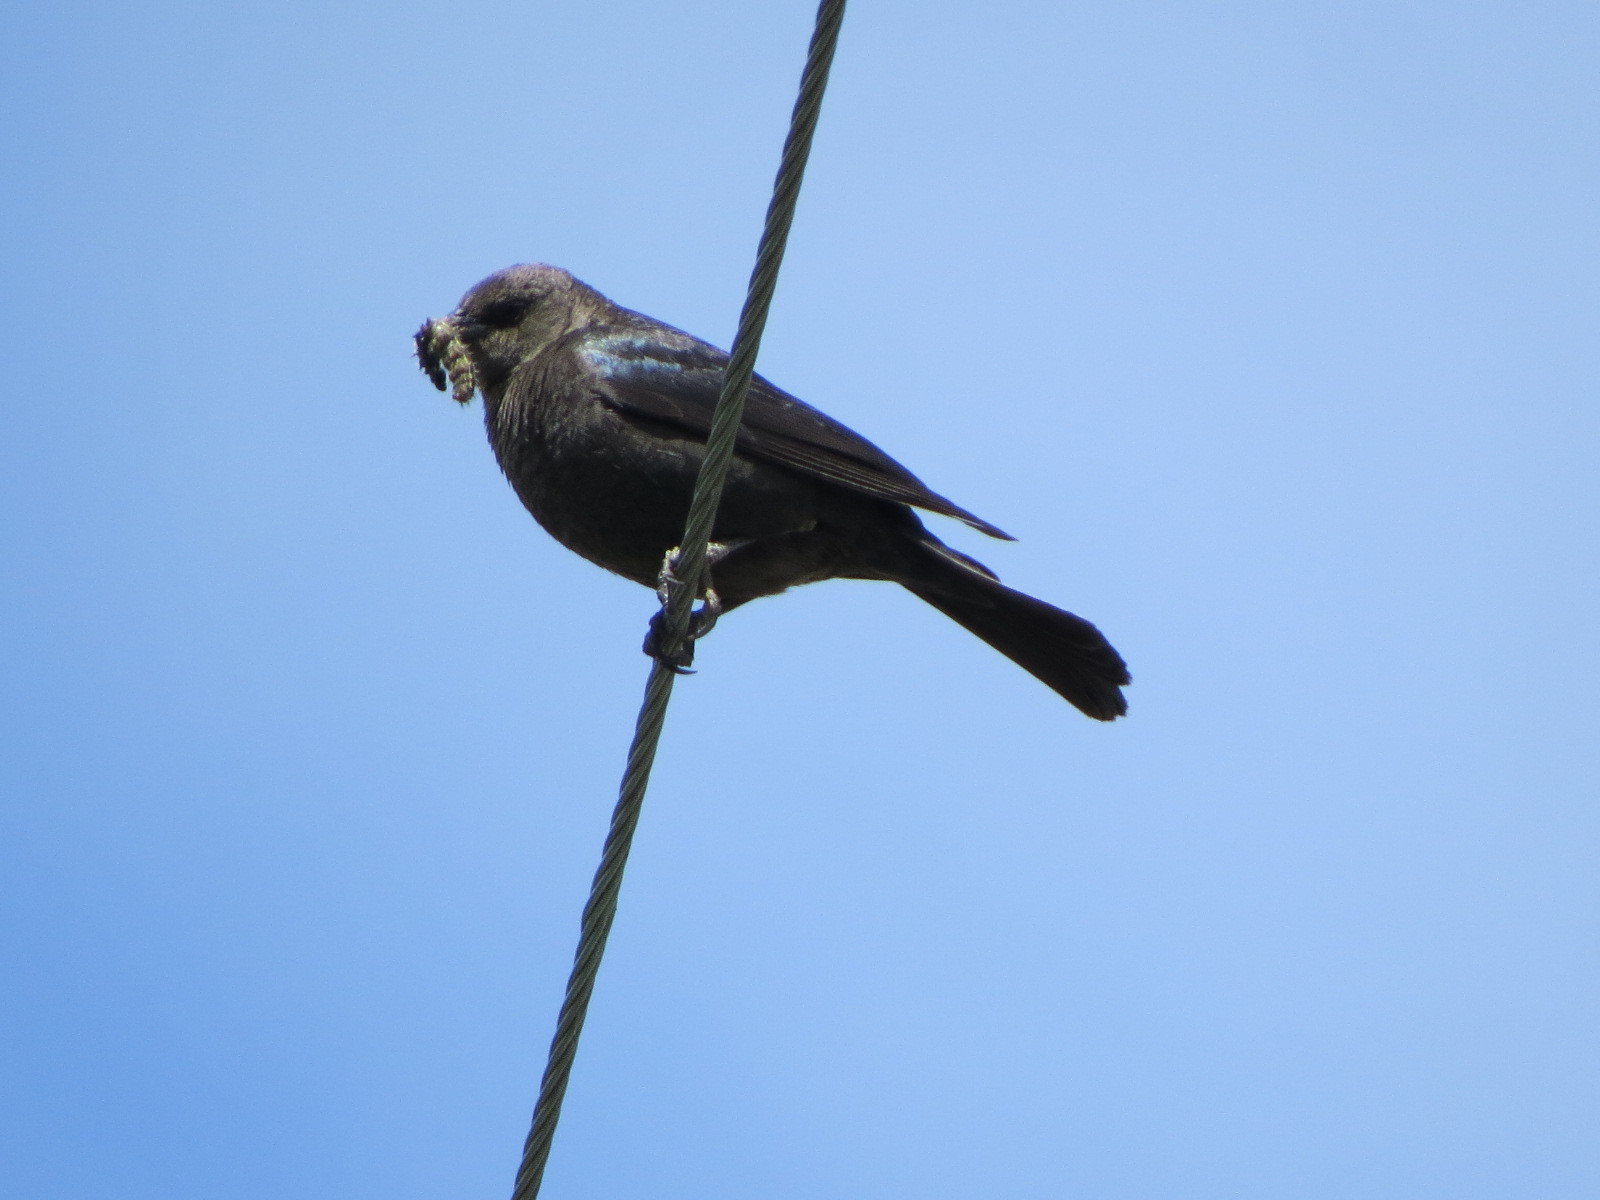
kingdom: Animalia
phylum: Chordata
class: Aves
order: Passeriformes
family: Icteridae
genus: Euphagus
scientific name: Euphagus cyanocephalus
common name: Brewer's blackbird
